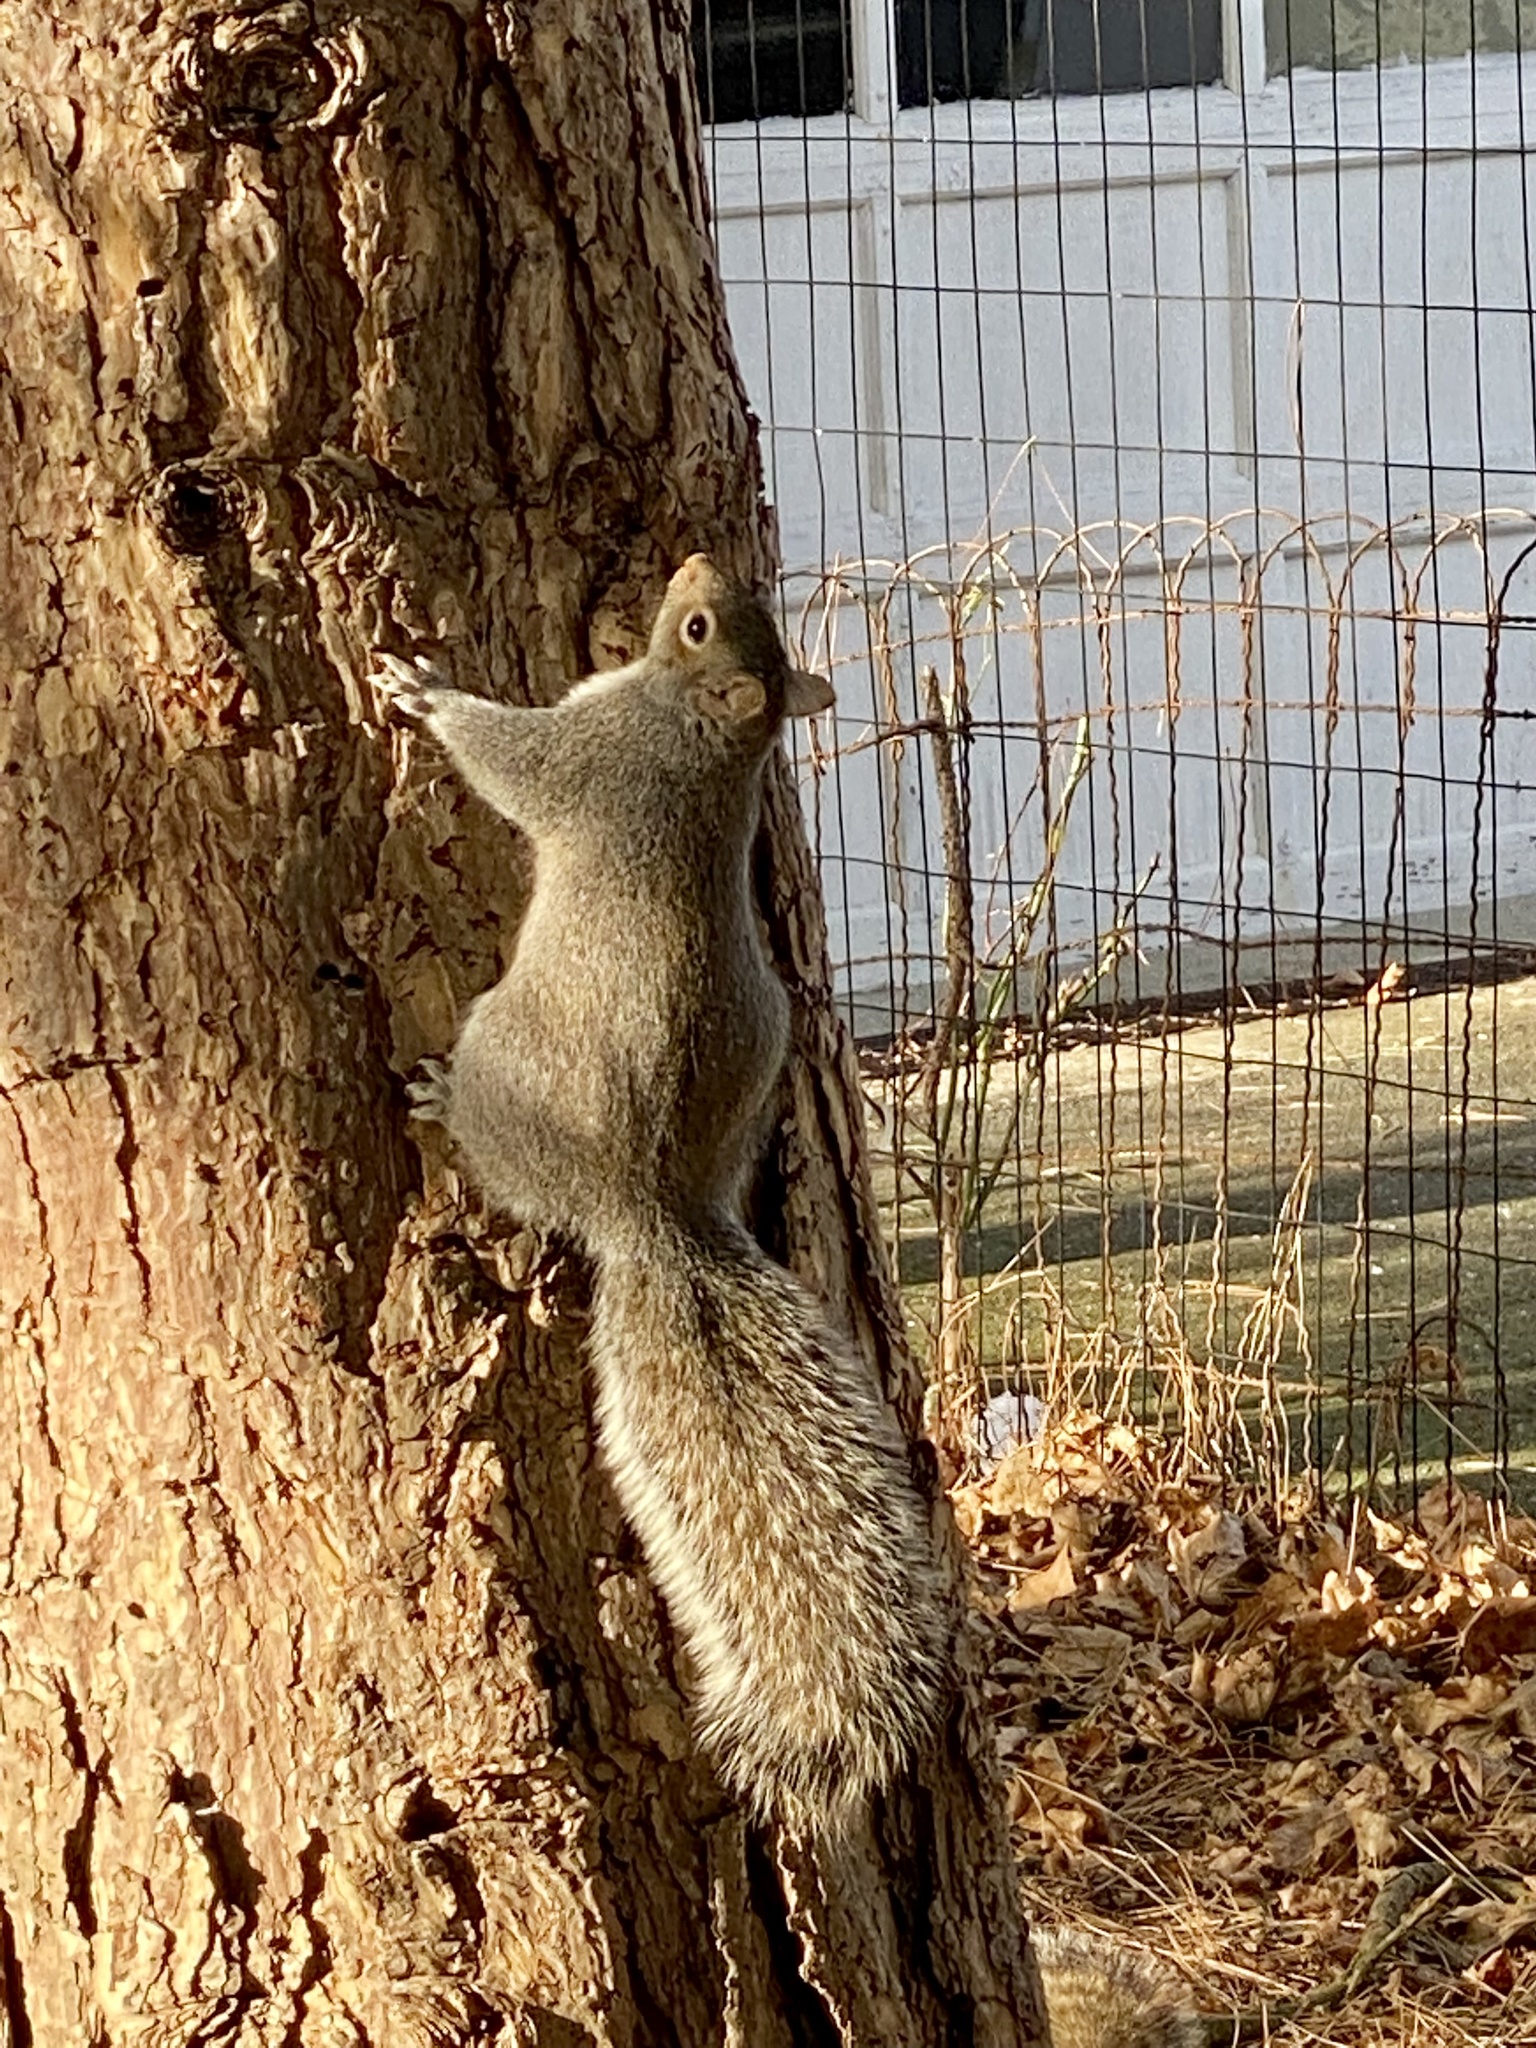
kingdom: Animalia
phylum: Chordata
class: Mammalia
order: Rodentia
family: Sciuridae
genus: Sciurus
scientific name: Sciurus carolinensis
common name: Eastern gray squirrel
